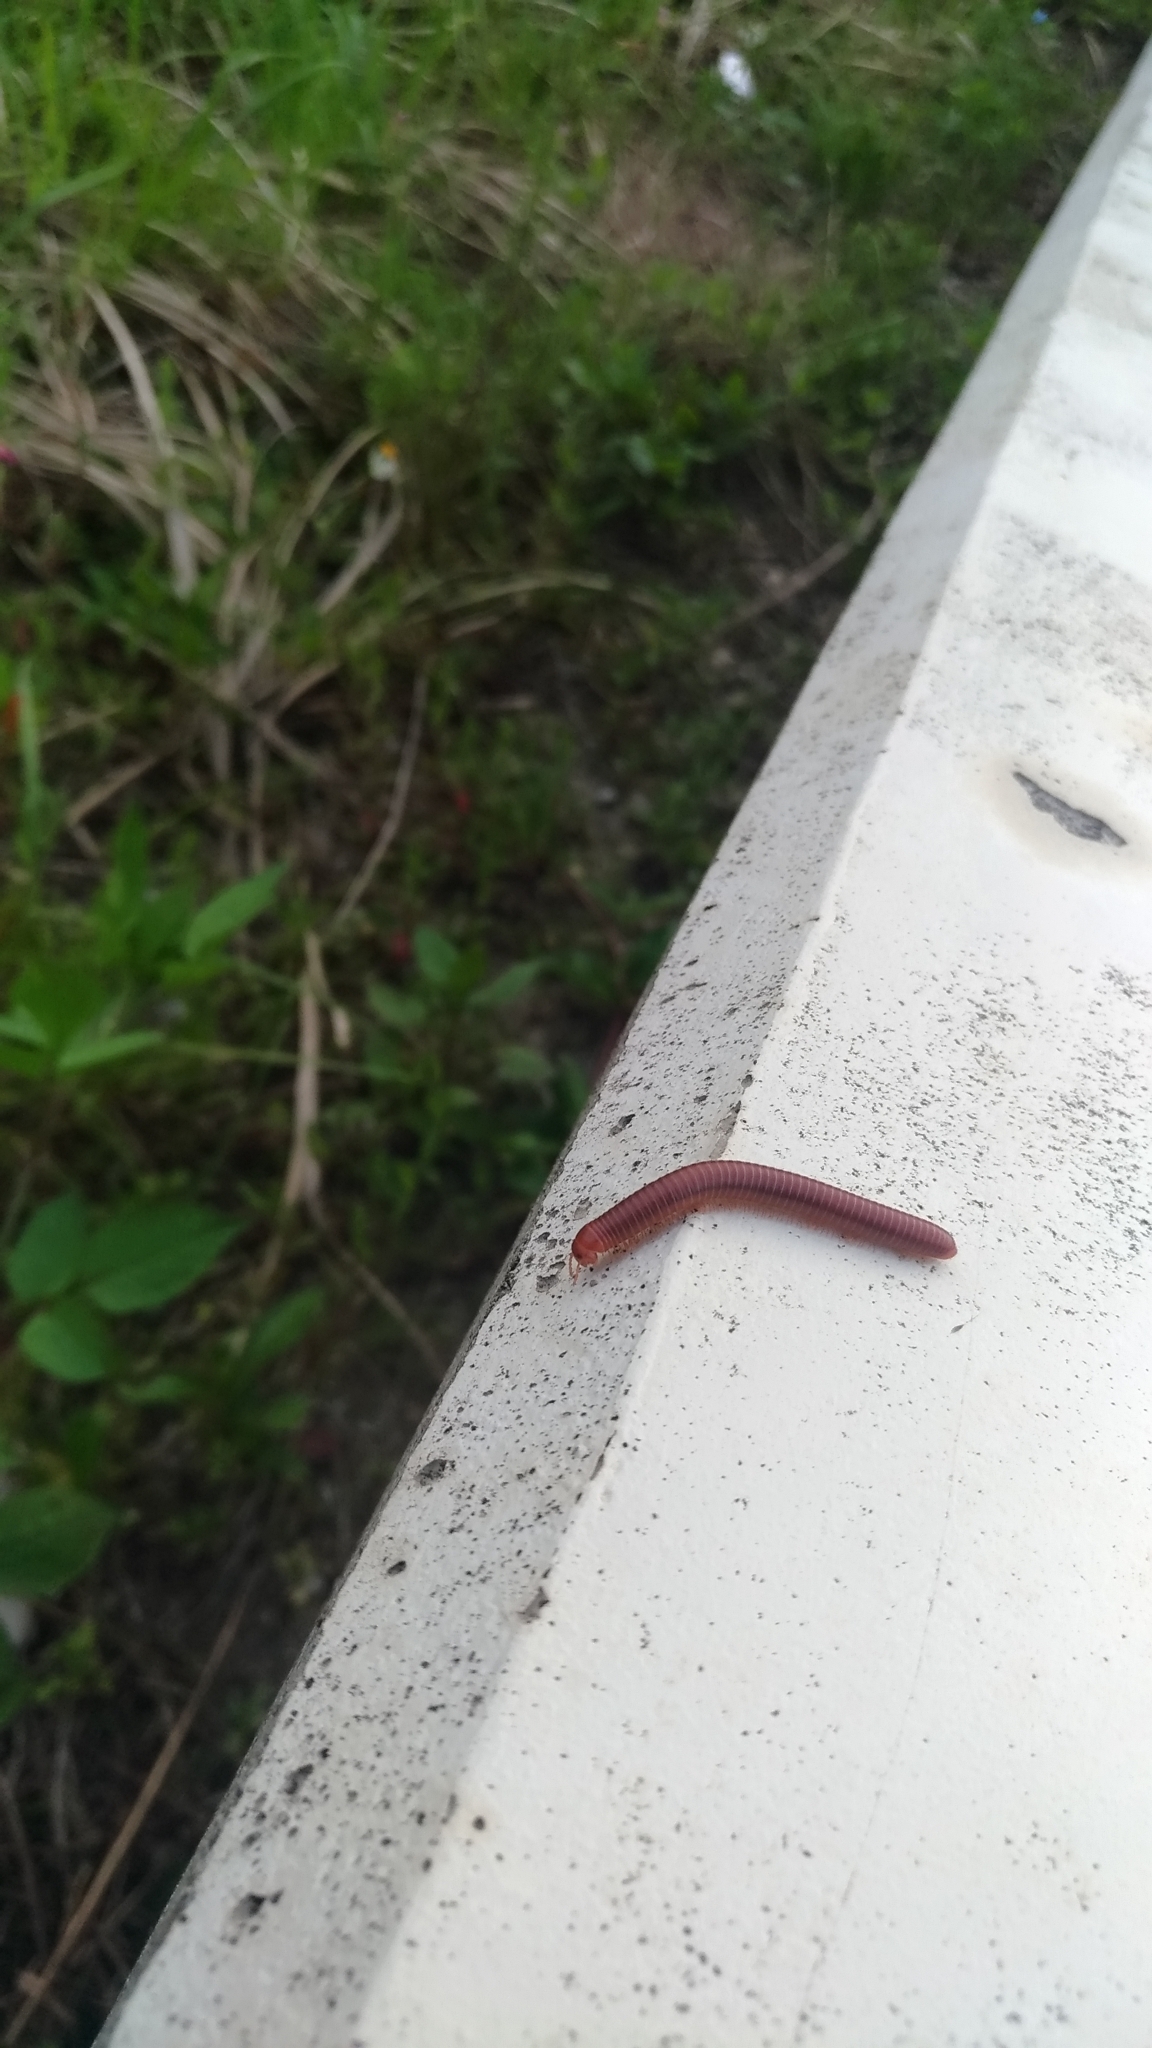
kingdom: Animalia
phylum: Arthropoda
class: Diplopoda
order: Spirobolida
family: Pachybolidae
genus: Trigoniulus
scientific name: Trigoniulus corallinus
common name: Millipede
